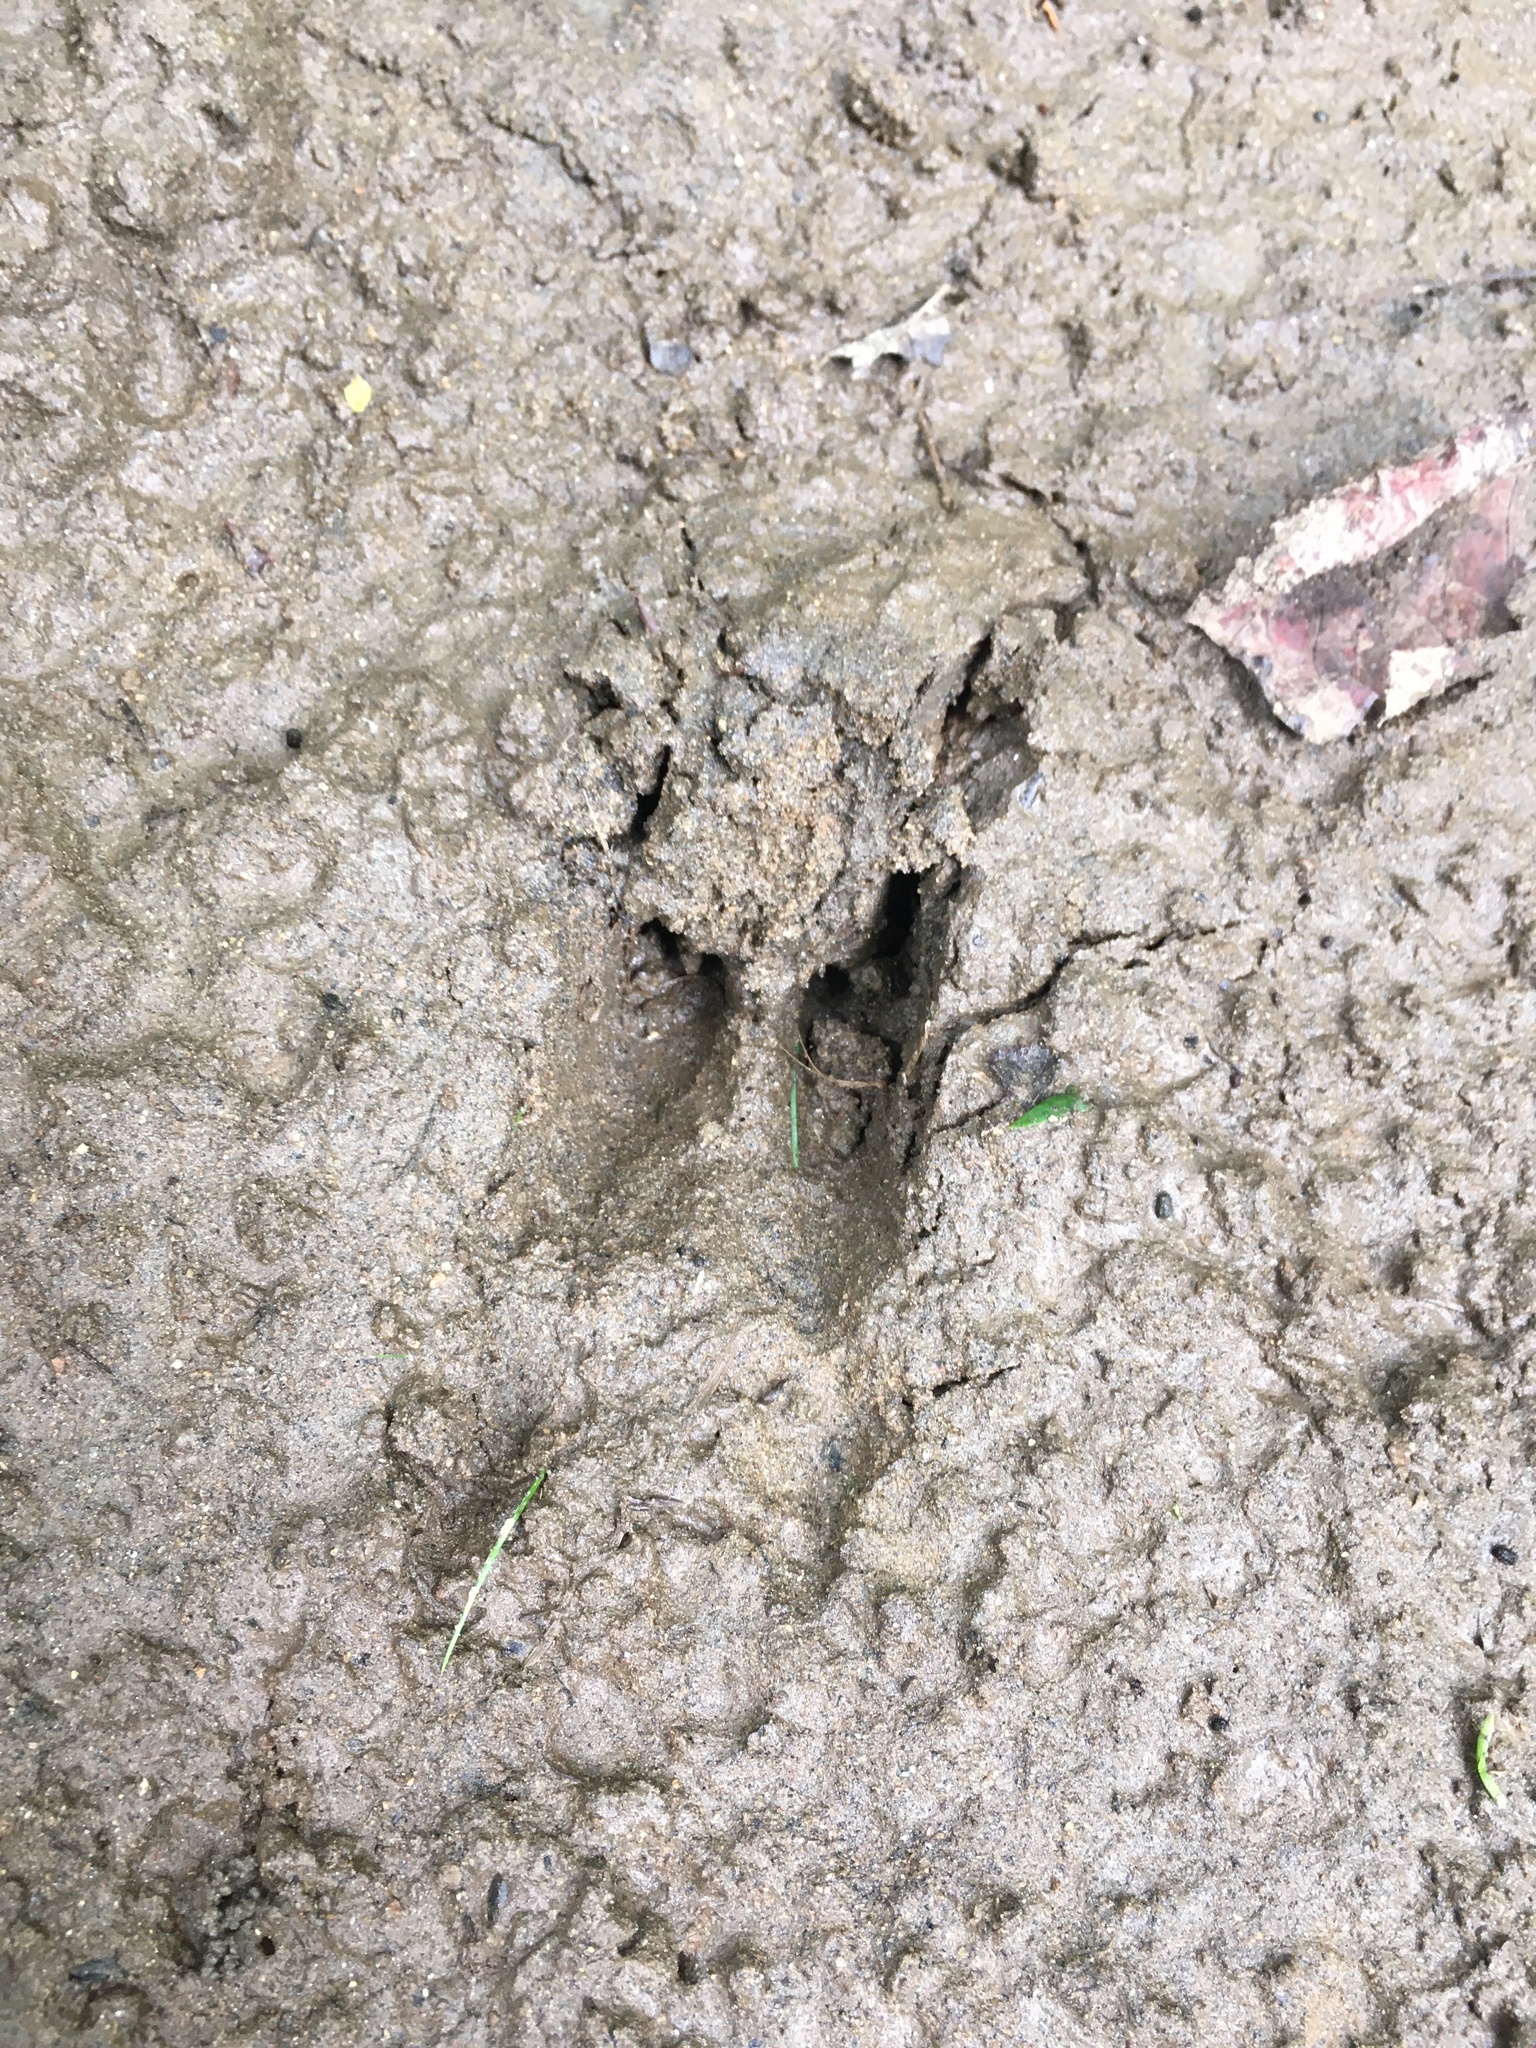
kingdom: Animalia
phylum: Chordata
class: Mammalia
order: Artiodactyla
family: Cervidae
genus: Odocoileus
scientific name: Odocoileus virginianus
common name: White-tailed deer
